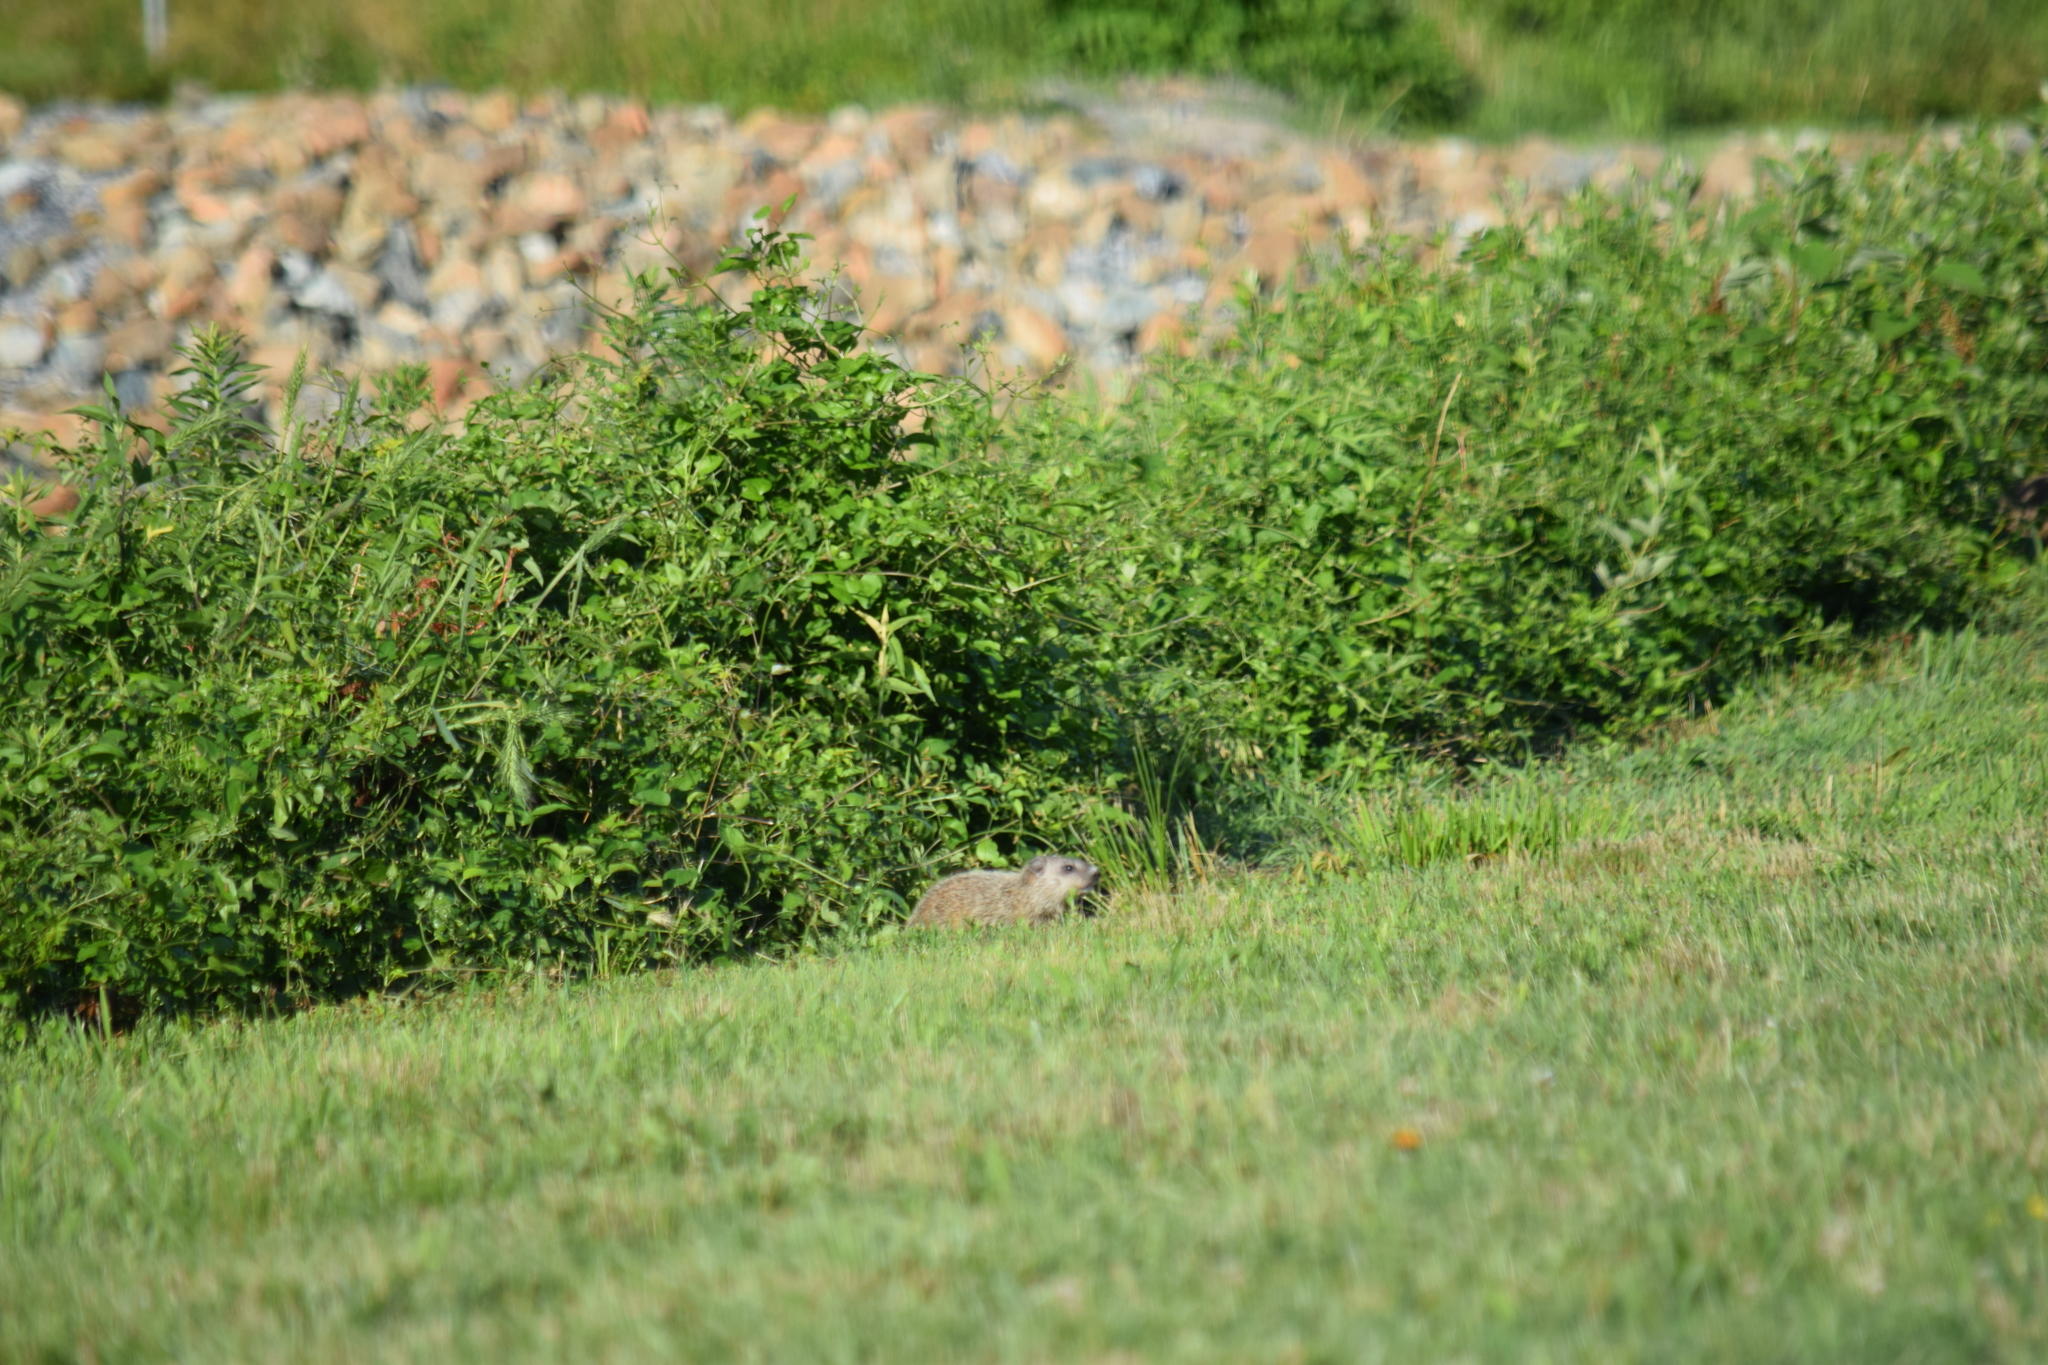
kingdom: Animalia
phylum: Chordata
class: Mammalia
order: Rodentia
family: Sciuridae
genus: Marmota
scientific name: Marmota monax
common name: Groundhog
